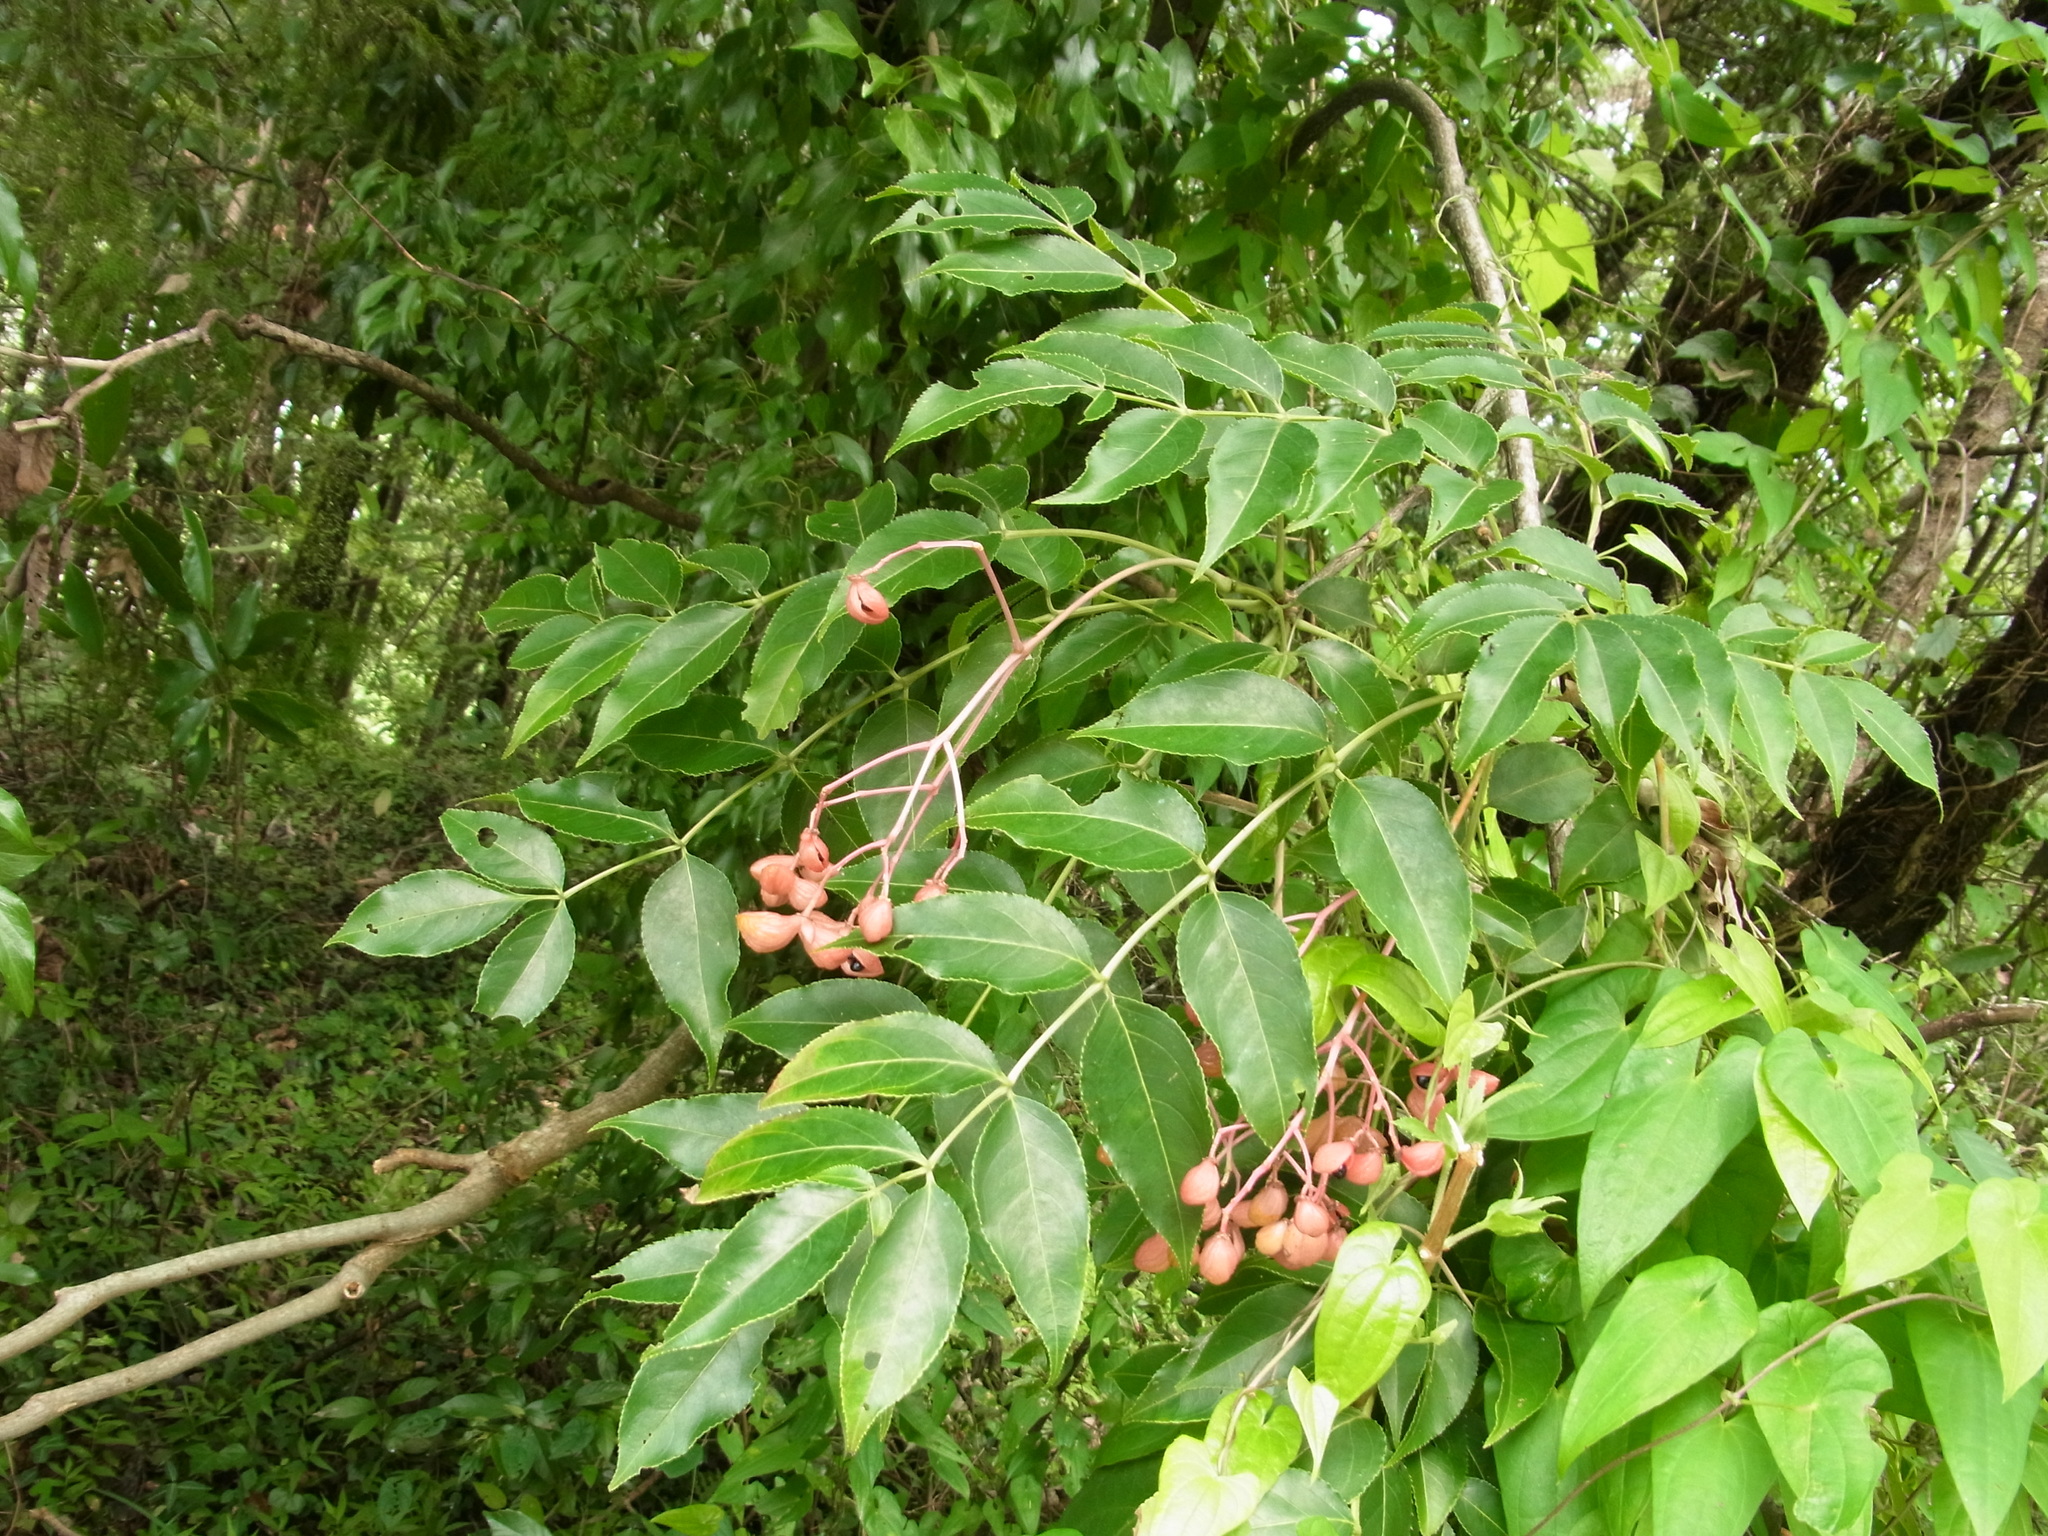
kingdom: Plantae
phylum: Tracheophyta
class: Magnoliopsida
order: Crossosomatales
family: Staphyleaceae
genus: Staphylea
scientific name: Staphylea japonica
